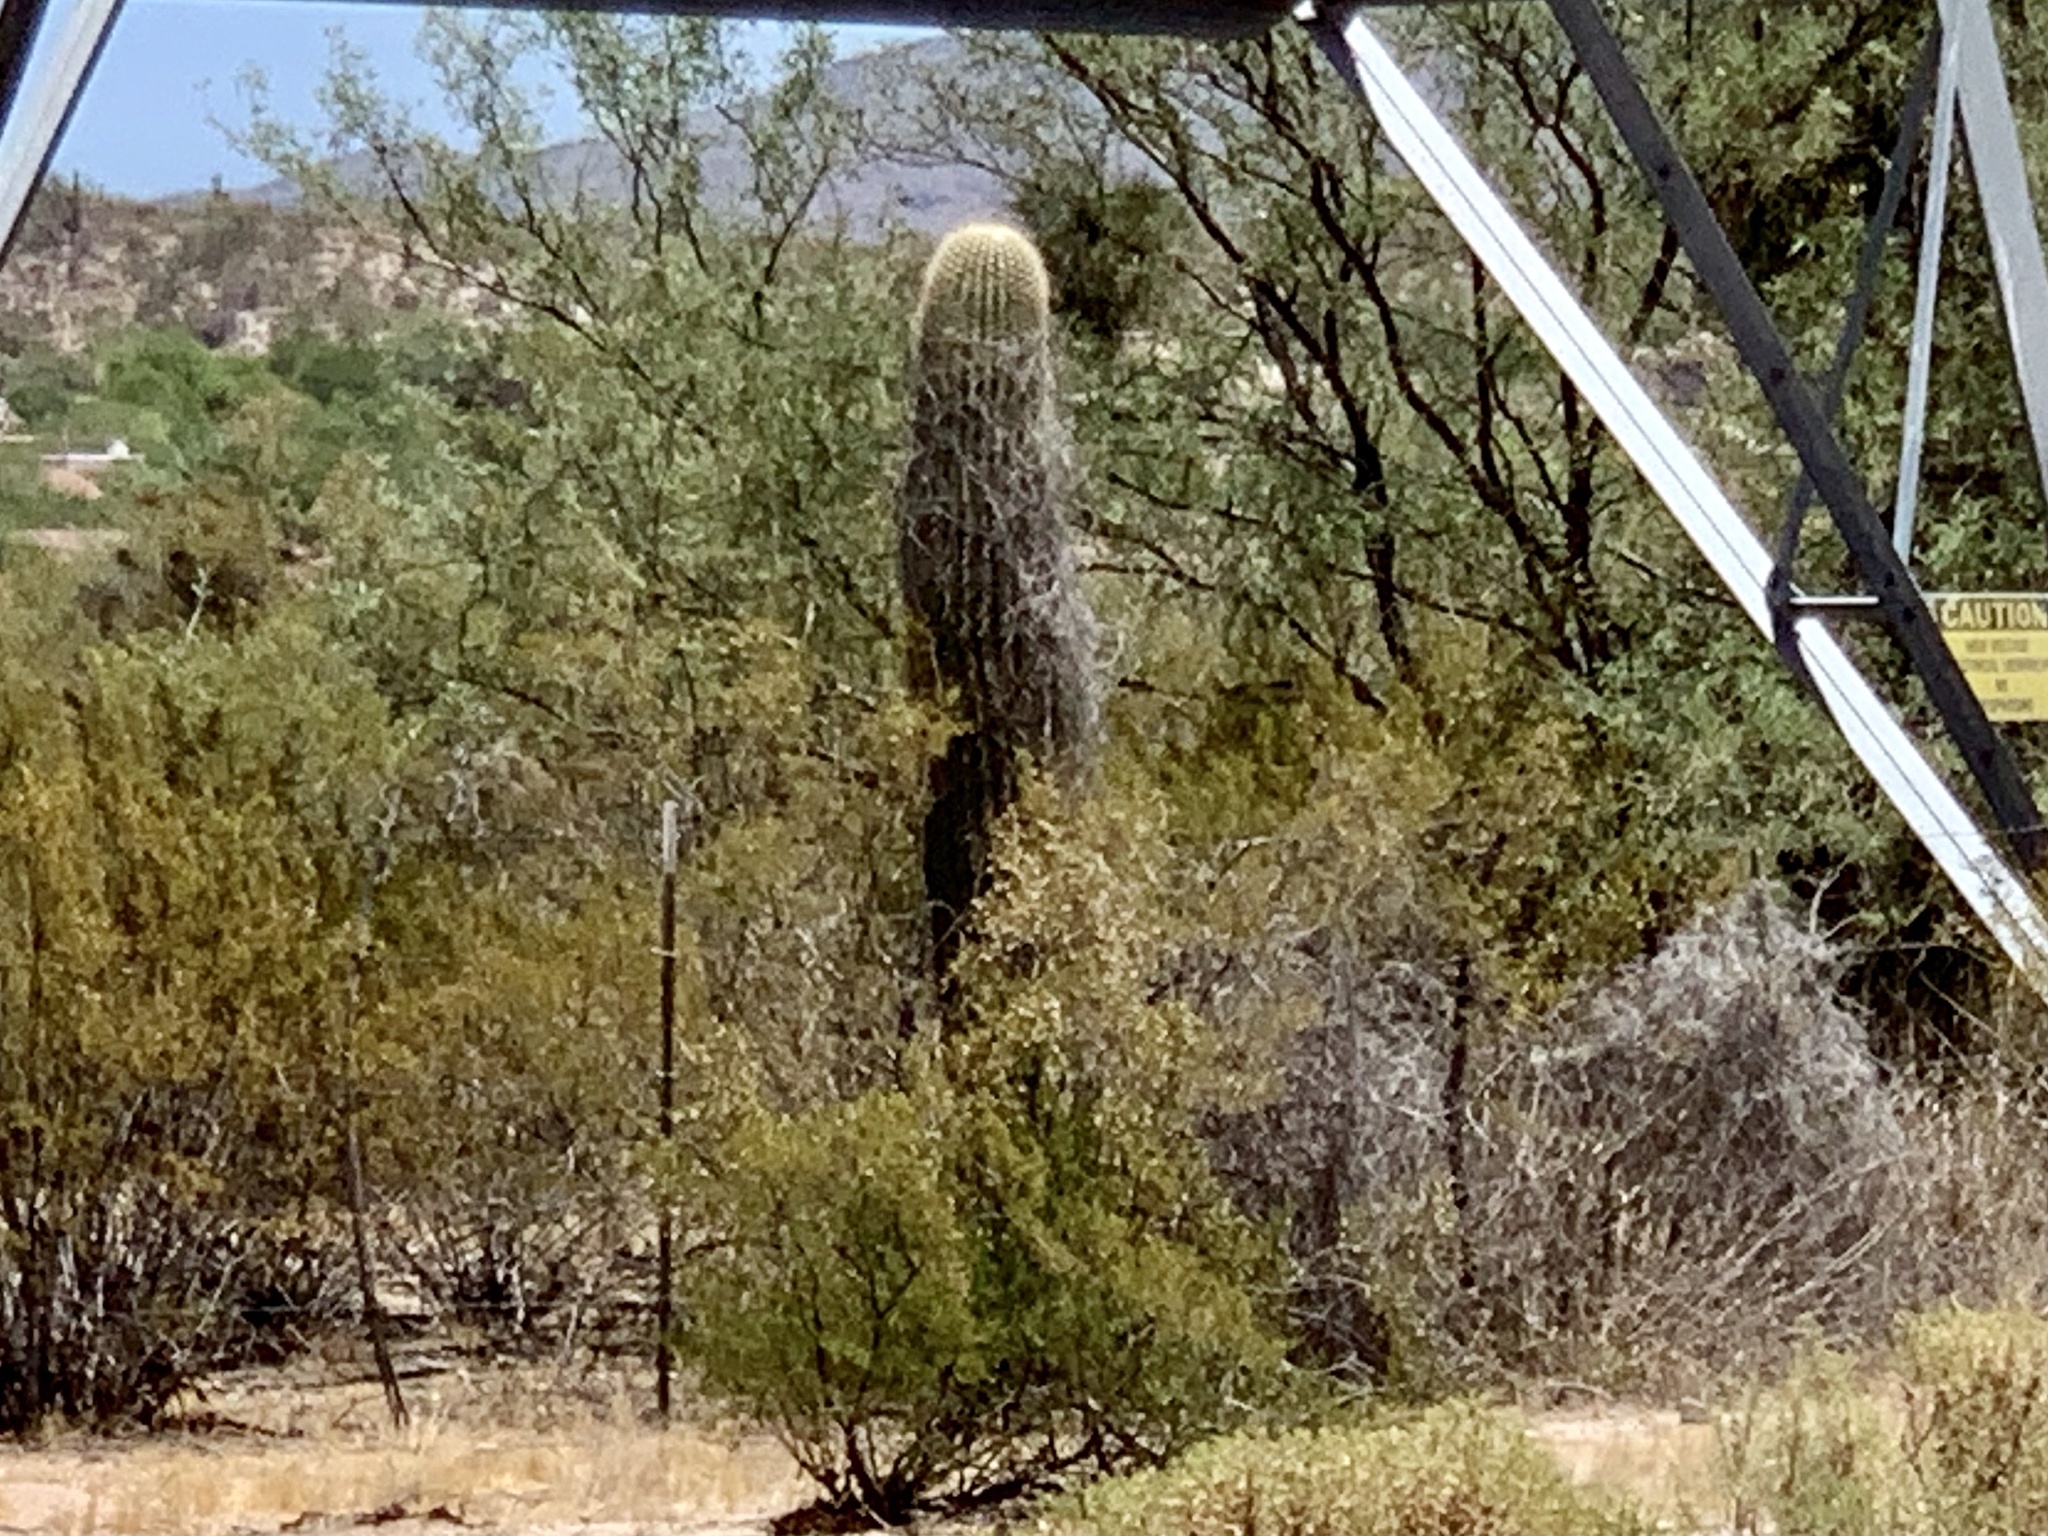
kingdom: Plantae
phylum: Tracheophyta
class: Magnoliopsida
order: Caryophyllales
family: Cactaceae
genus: Carnegiea
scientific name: Carnegiea gigantea
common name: Saguaro
